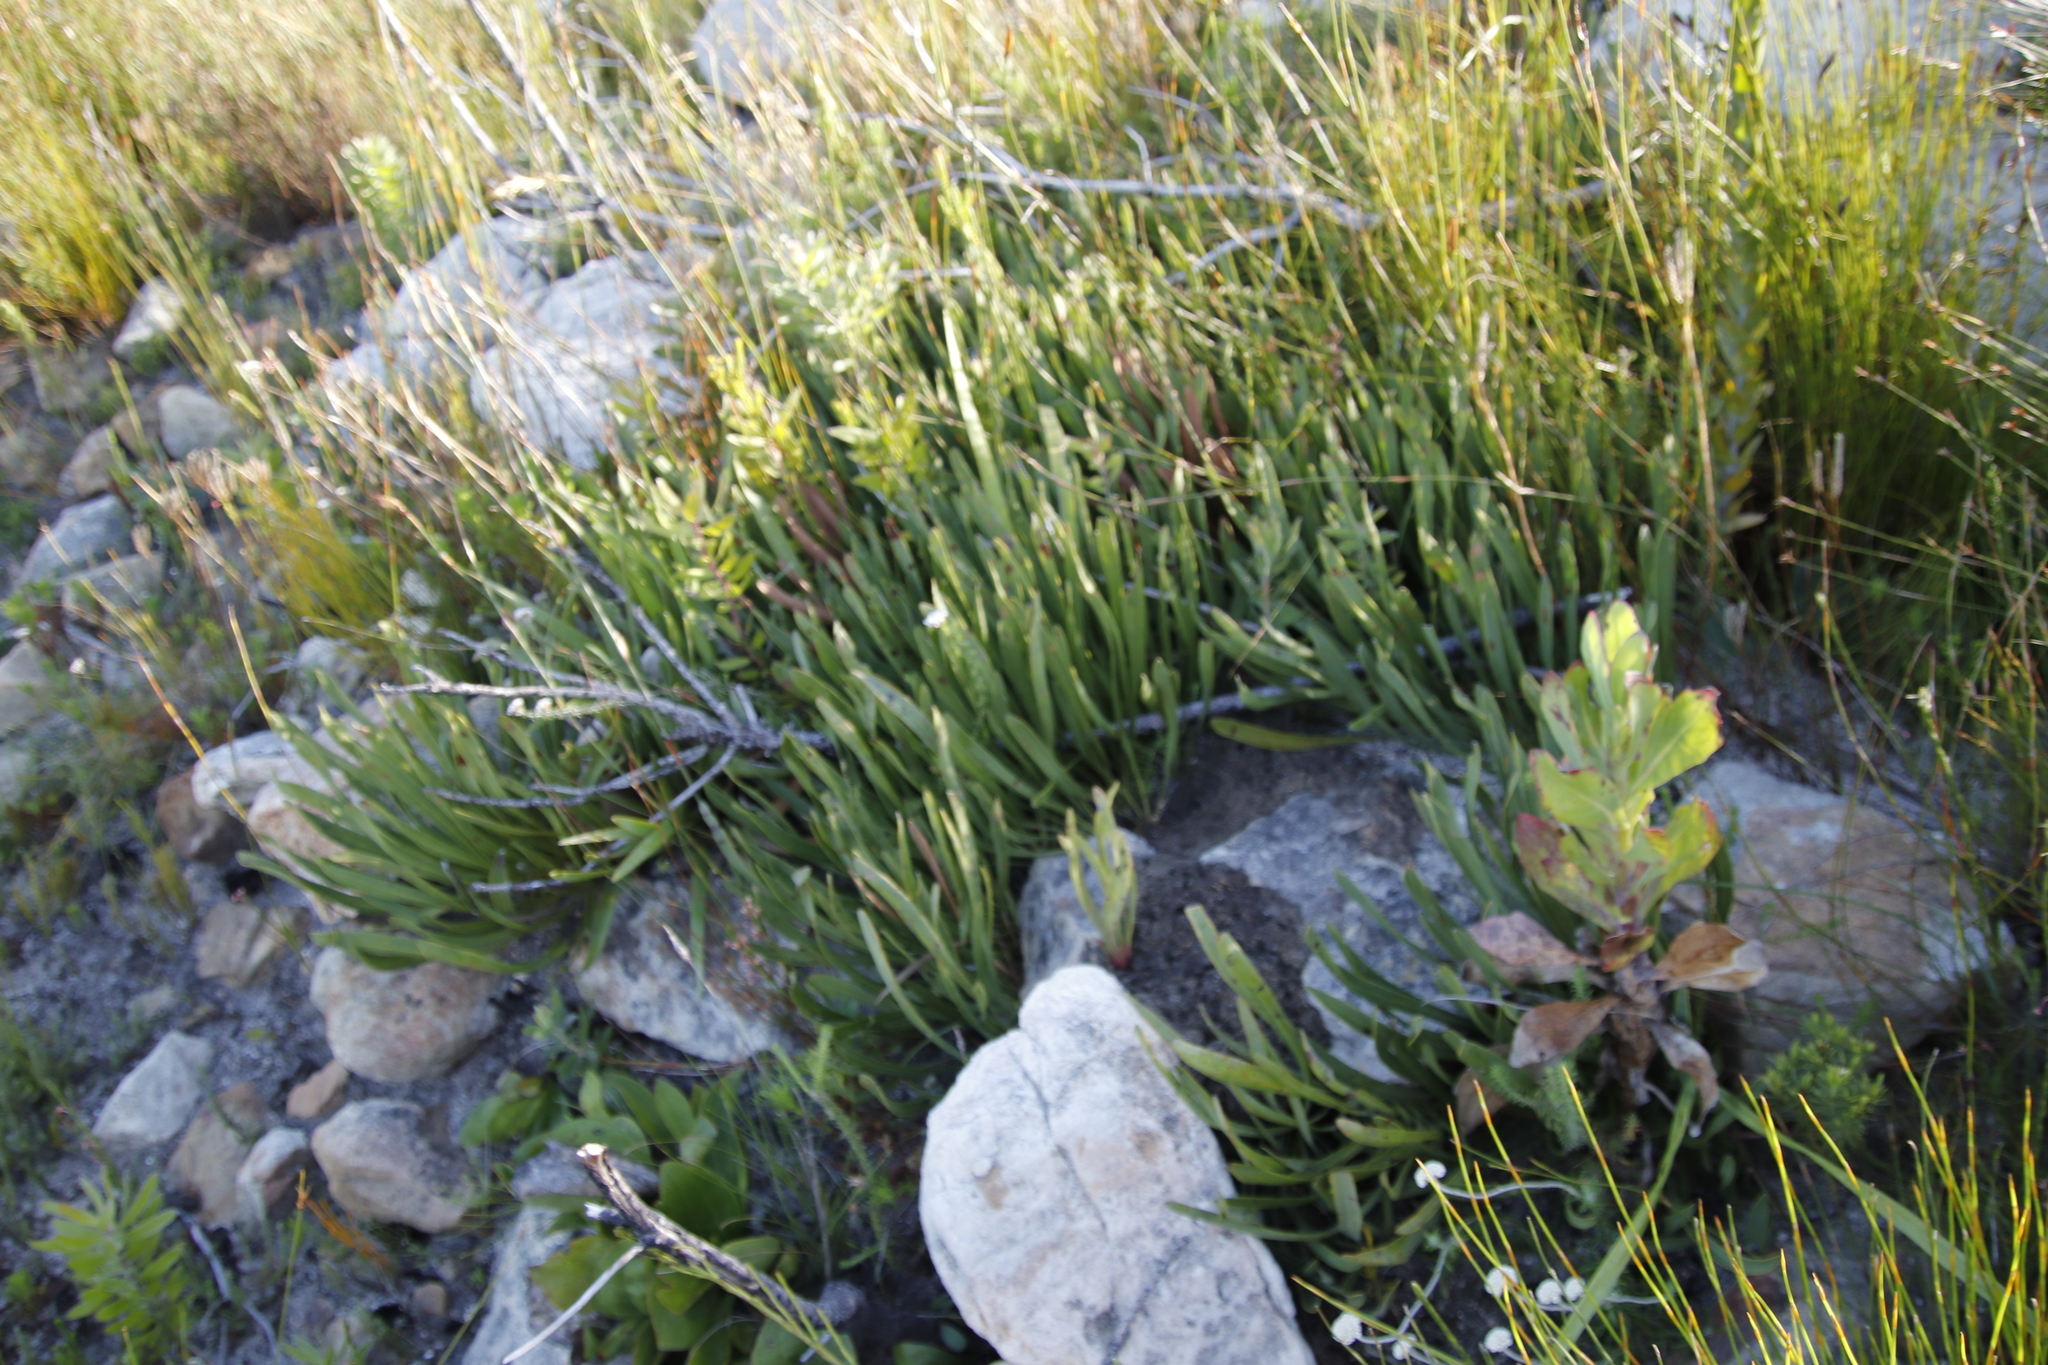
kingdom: Plantae
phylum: Tracheophyta
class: Magnoliopsida
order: Proteales
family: Proteaceae
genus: Protea
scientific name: Protea scabra
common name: Sandpaper-leaf sugarbush
